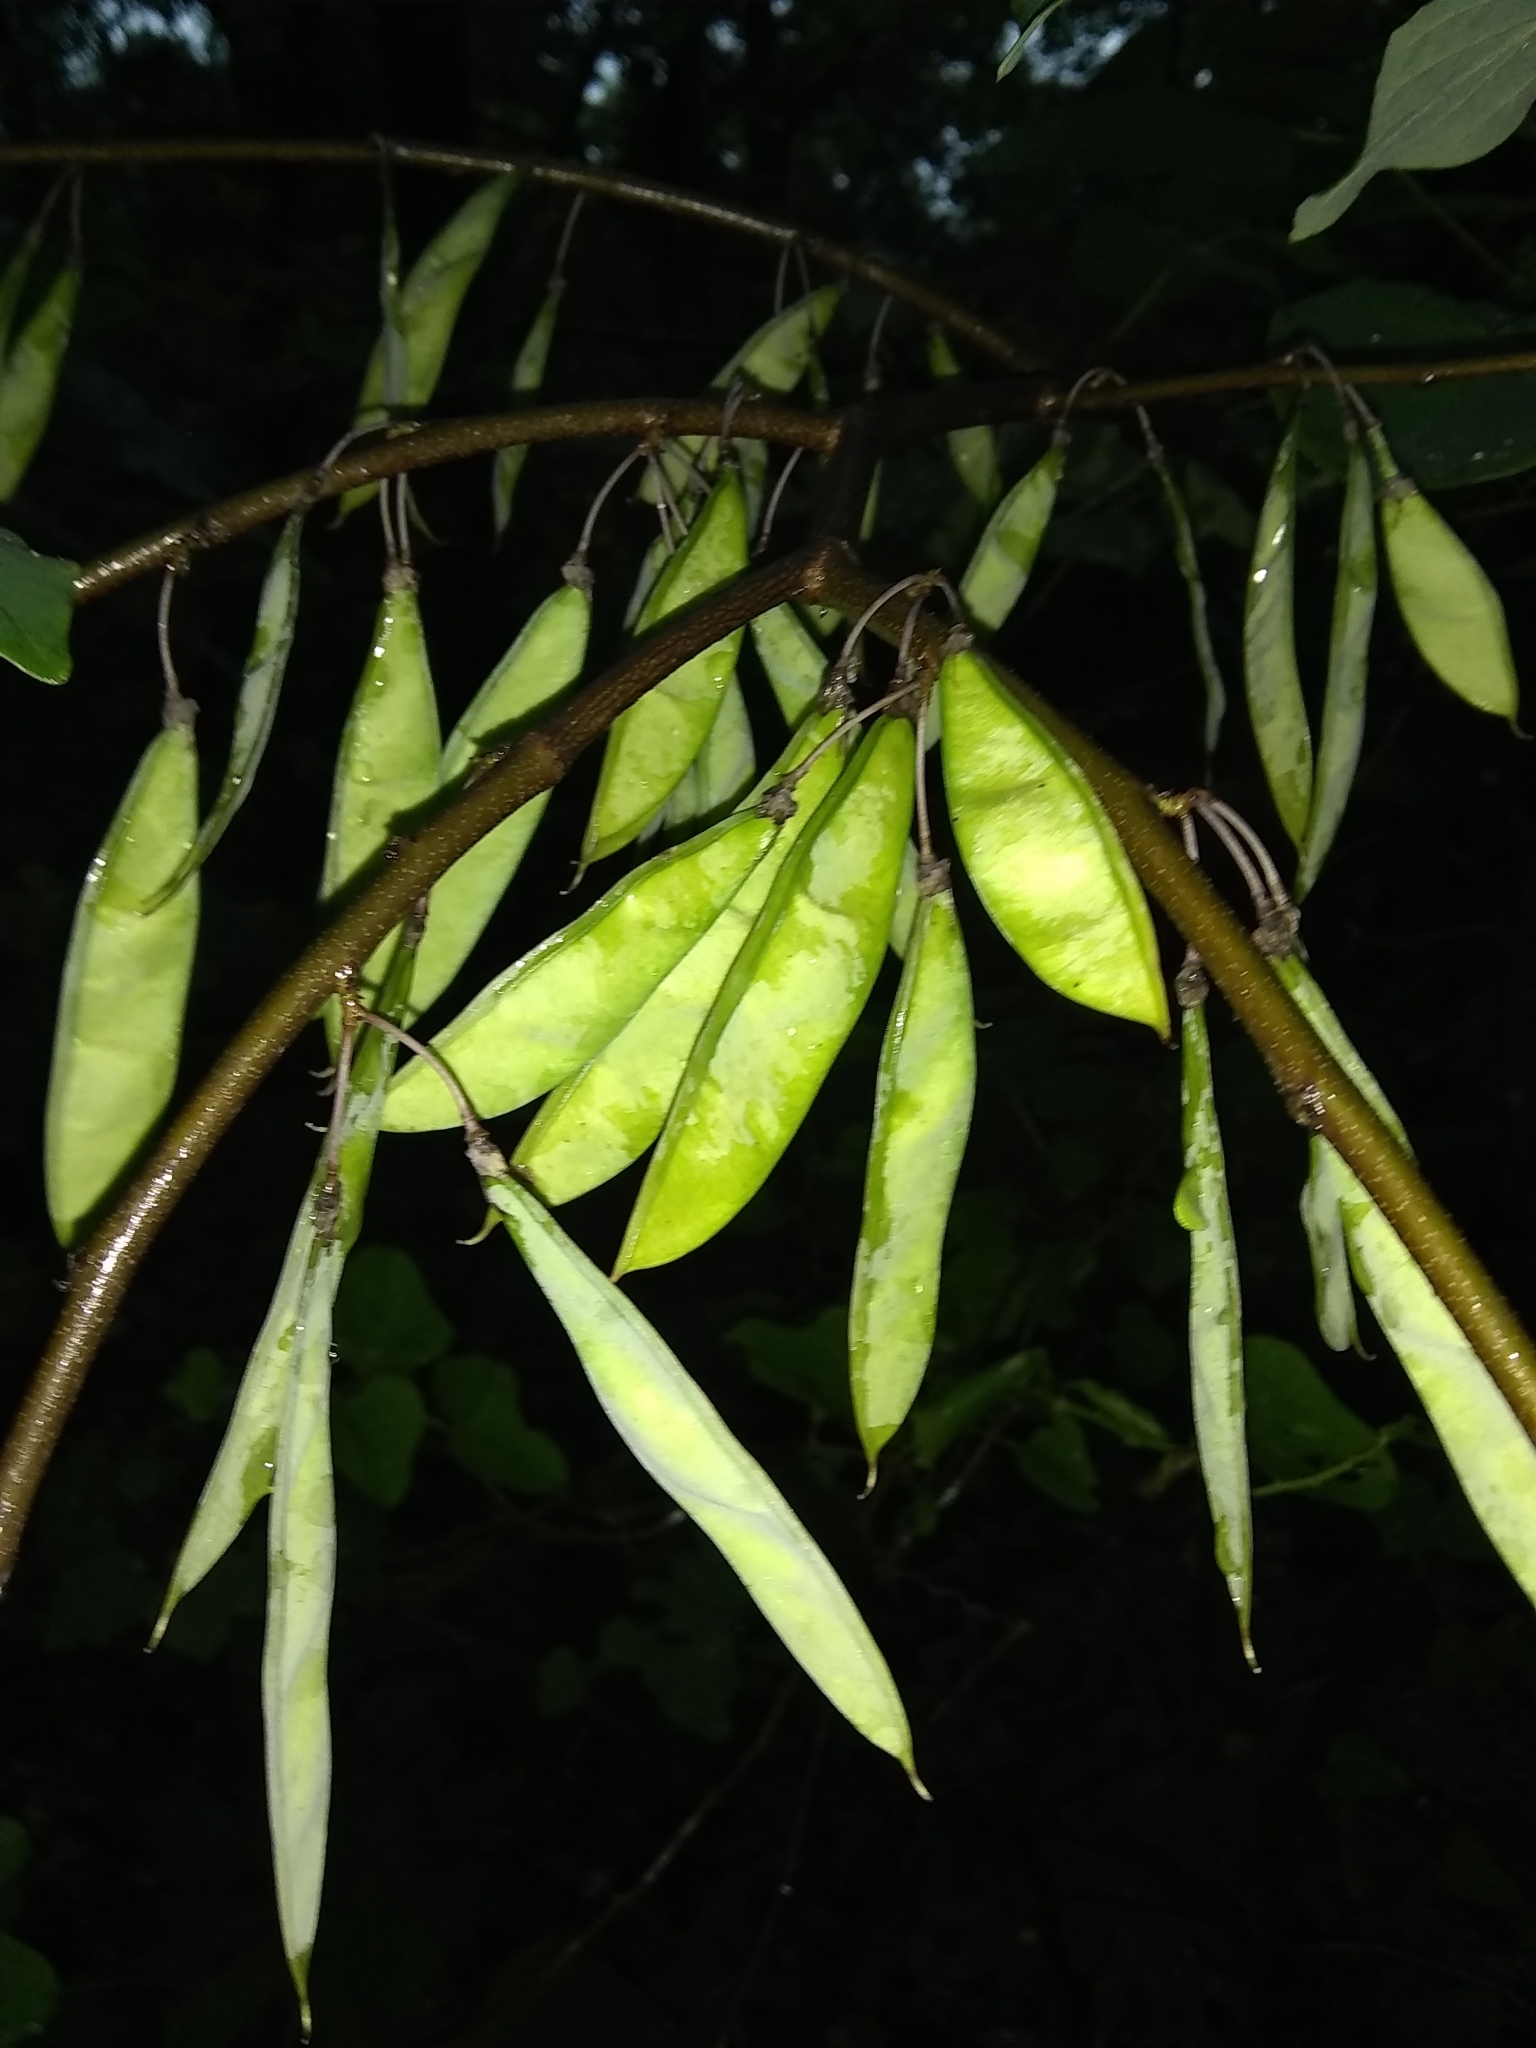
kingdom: Plantae
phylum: Tracheophyta
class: Magnoliopsida
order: Fabales
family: Fabaceae
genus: Cercis
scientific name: Cercis canadensis
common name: Eastern redbud
